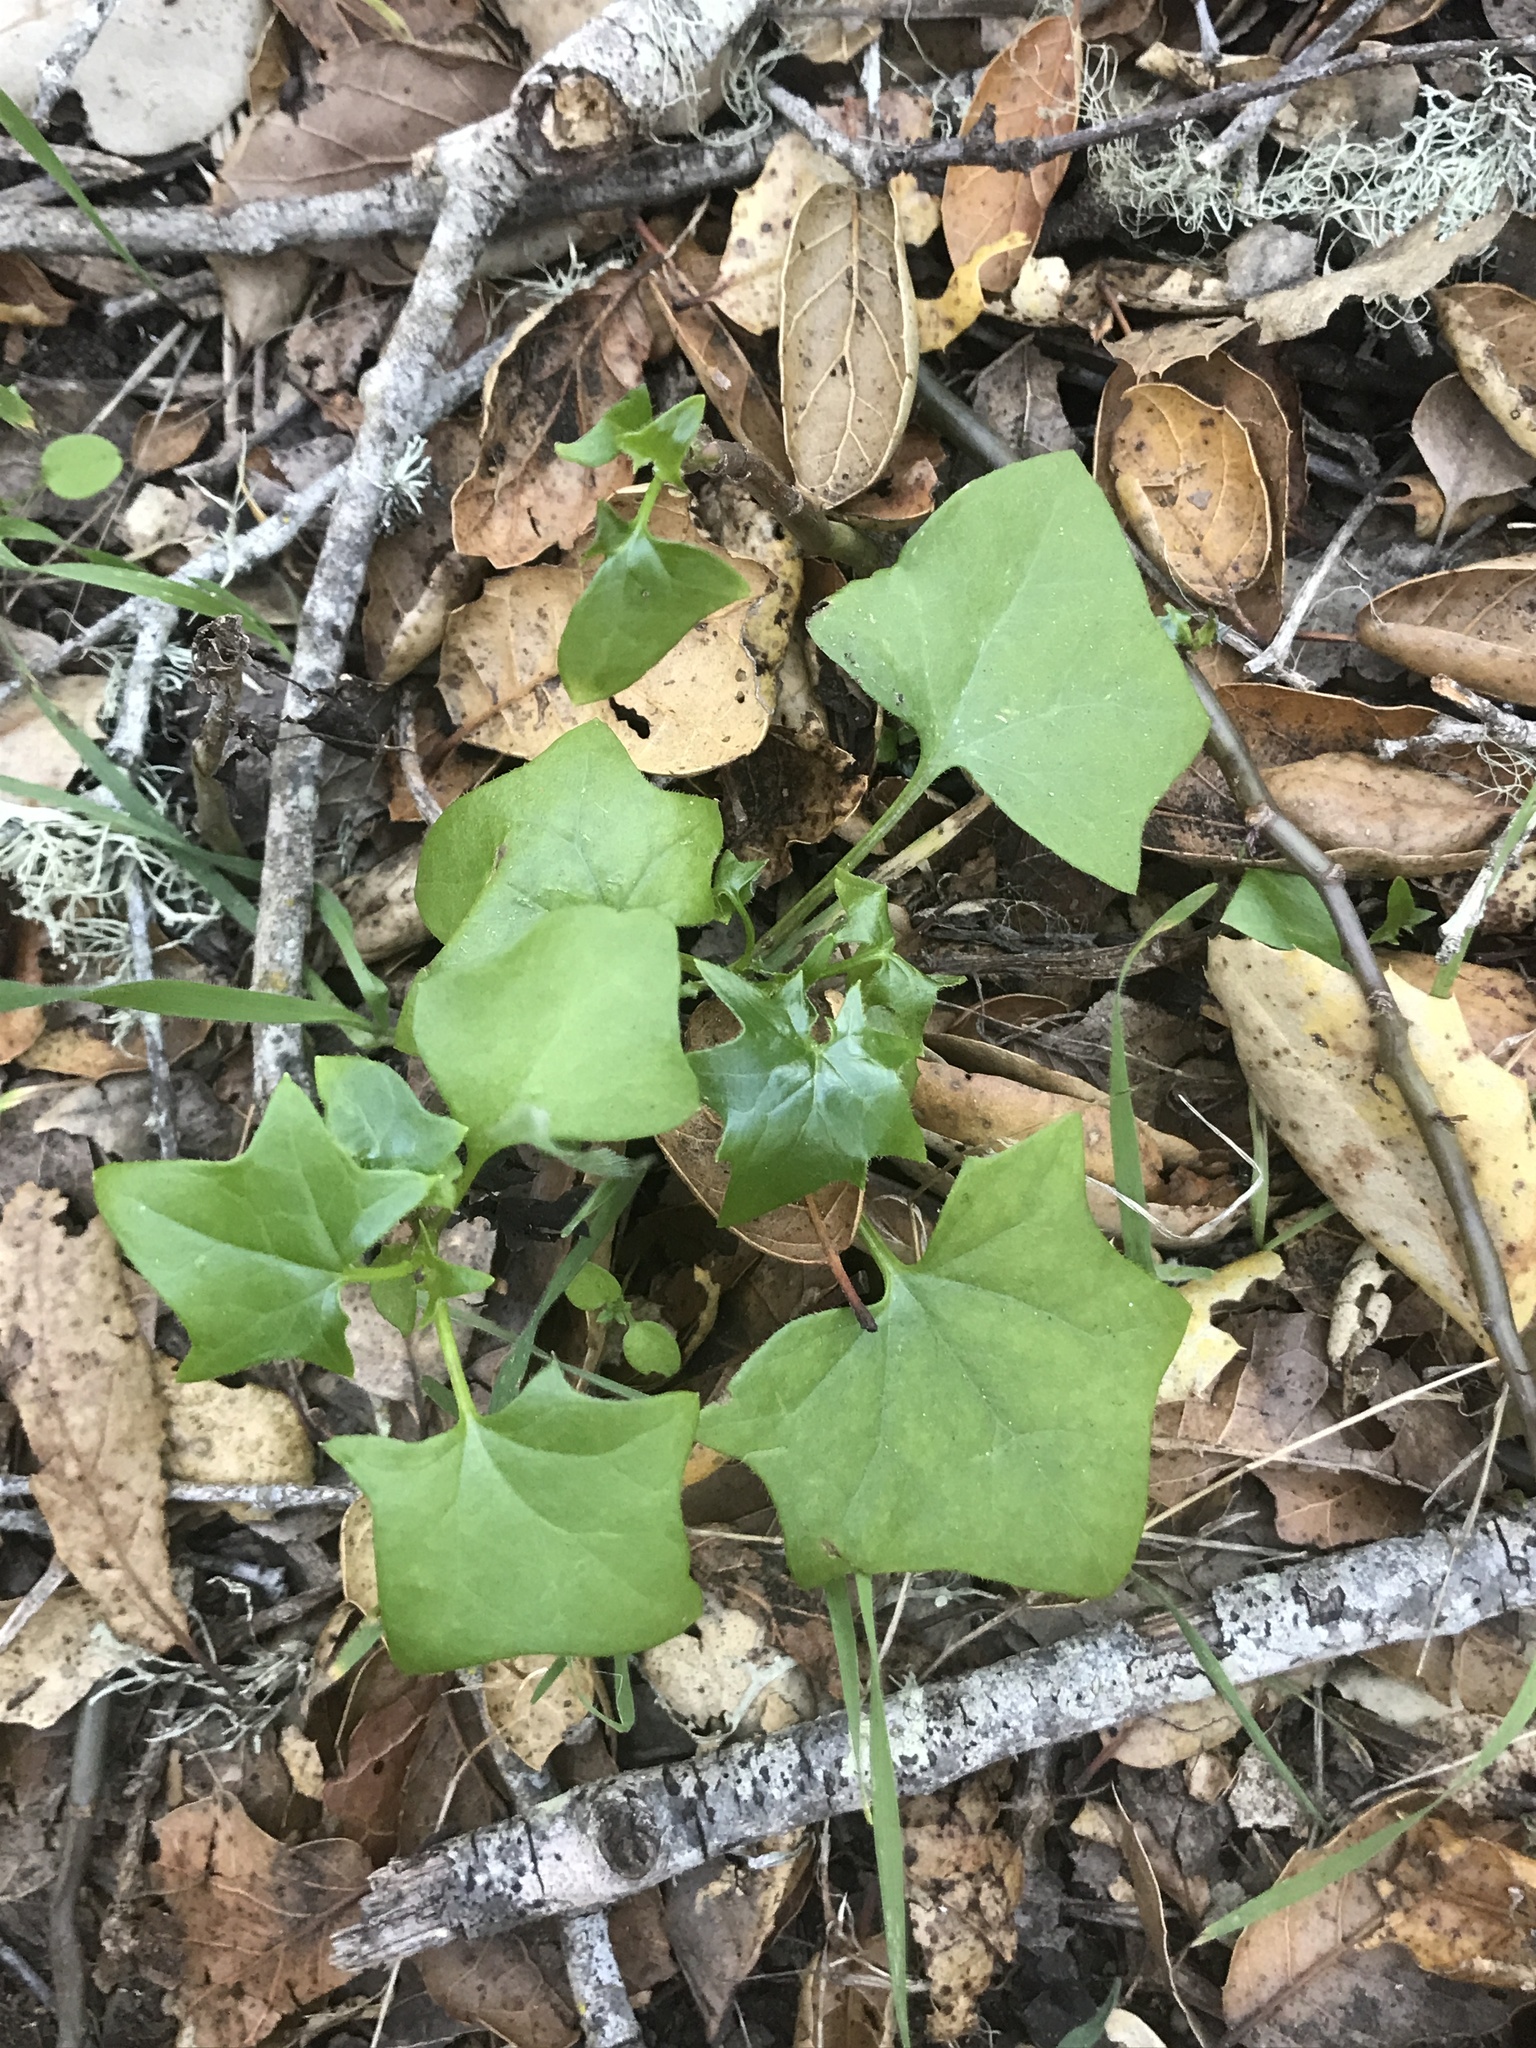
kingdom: Plantae
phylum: Tracheophyta
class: Magnoliopsida
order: Asterales
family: Asteraceae
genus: Delairea
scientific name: Delairea odorata
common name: Cape-ivy
